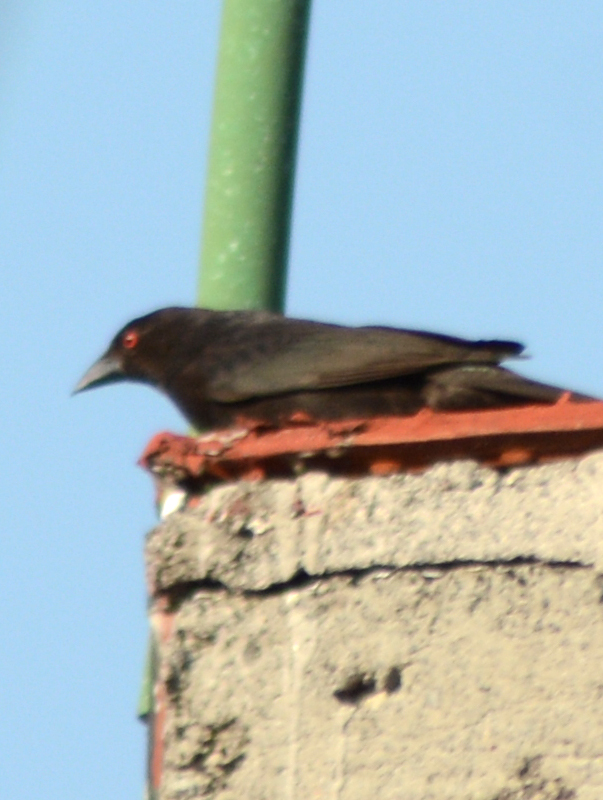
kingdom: Animalia
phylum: Chordata
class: Aves
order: Passeriformes
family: Icteridae
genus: Molothrus
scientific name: Molothrus aeneus
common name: Bronzed cowbird
